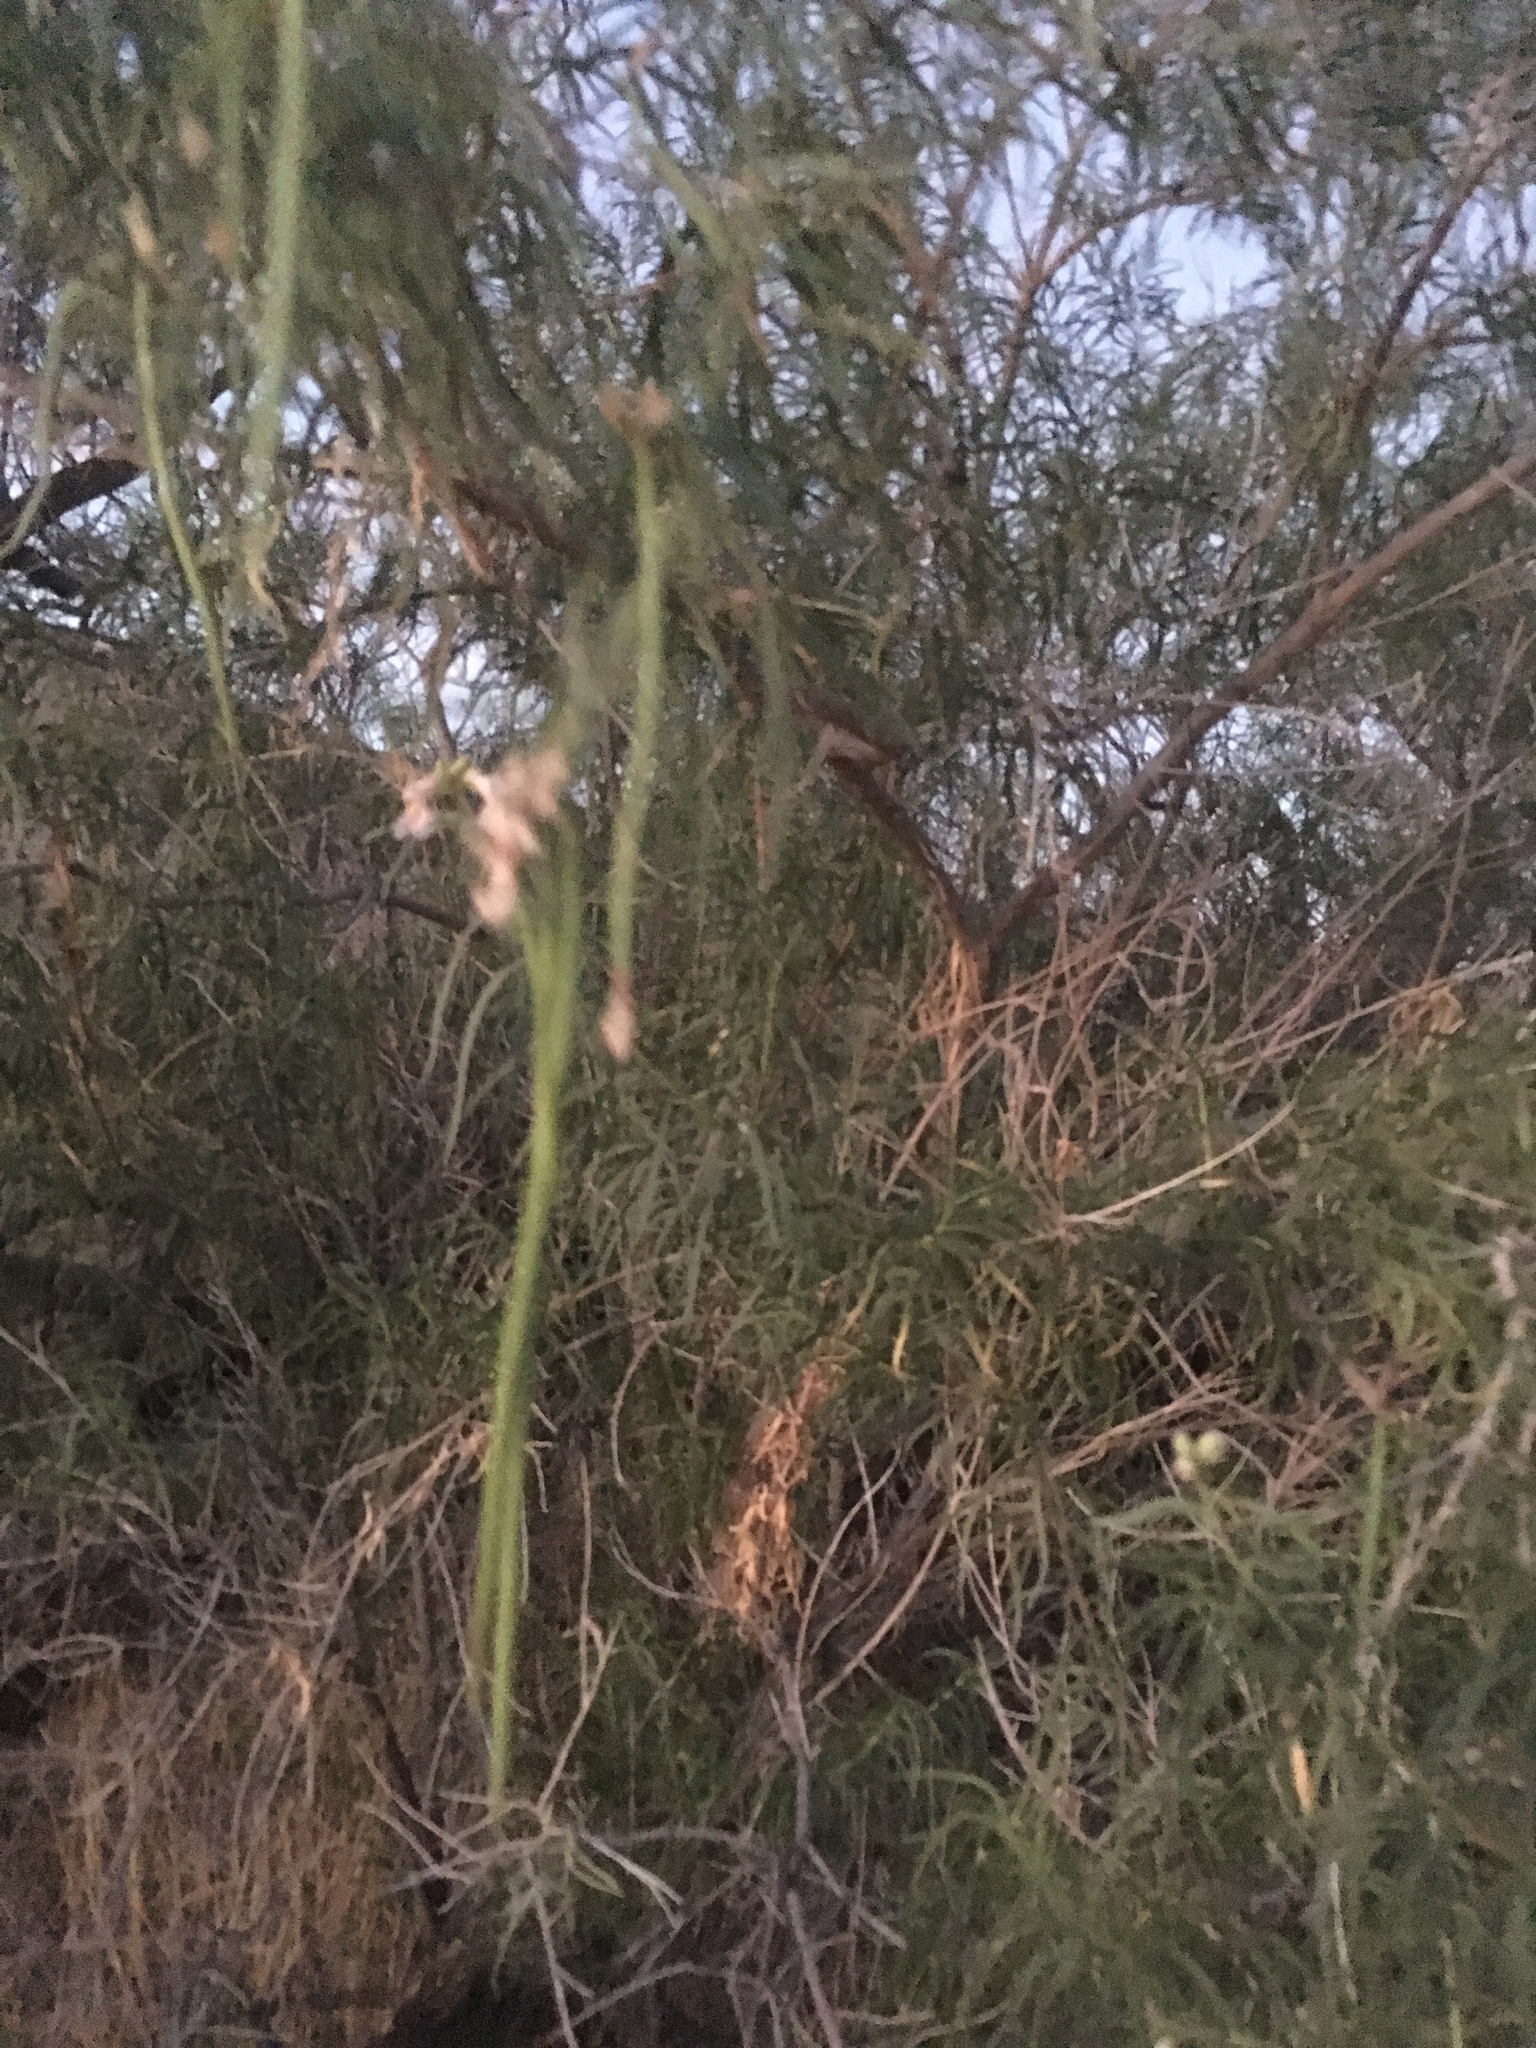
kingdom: Plantae
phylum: Tracheophyta
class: Magnoliopsida
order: Lamiales
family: Bignoniaceae
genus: Chilopsis
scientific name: Chilopsis linearis
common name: Desert-willow
